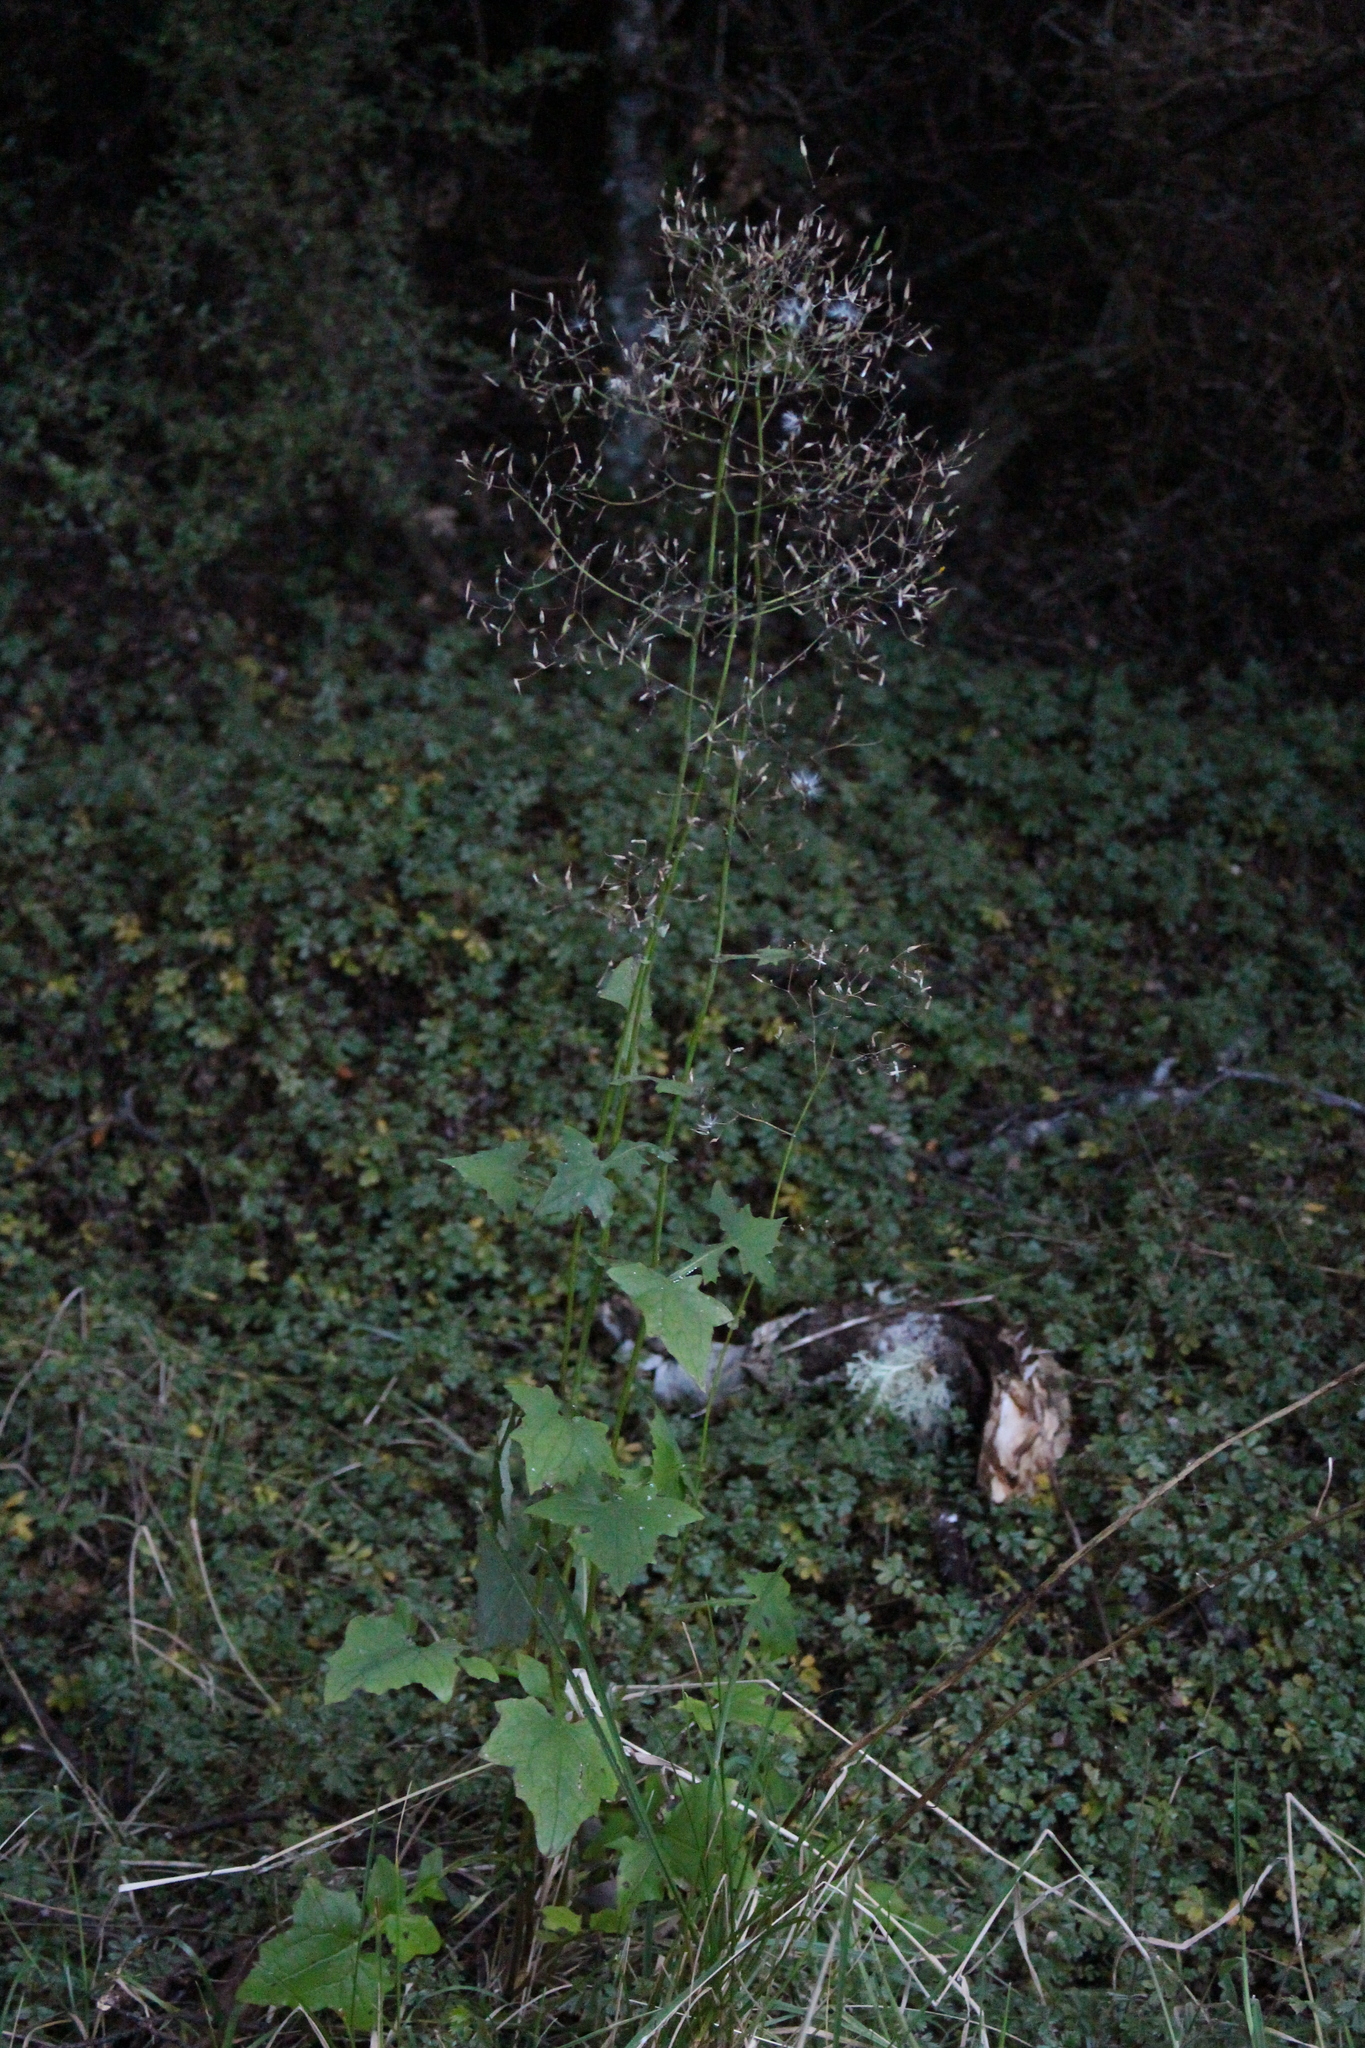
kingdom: Plantae
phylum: Tracheophyta
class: Magnoliopsida
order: Asterales
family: Asteraceae
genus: Mycelis
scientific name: Mycelis muralis
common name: Wall lettuce
